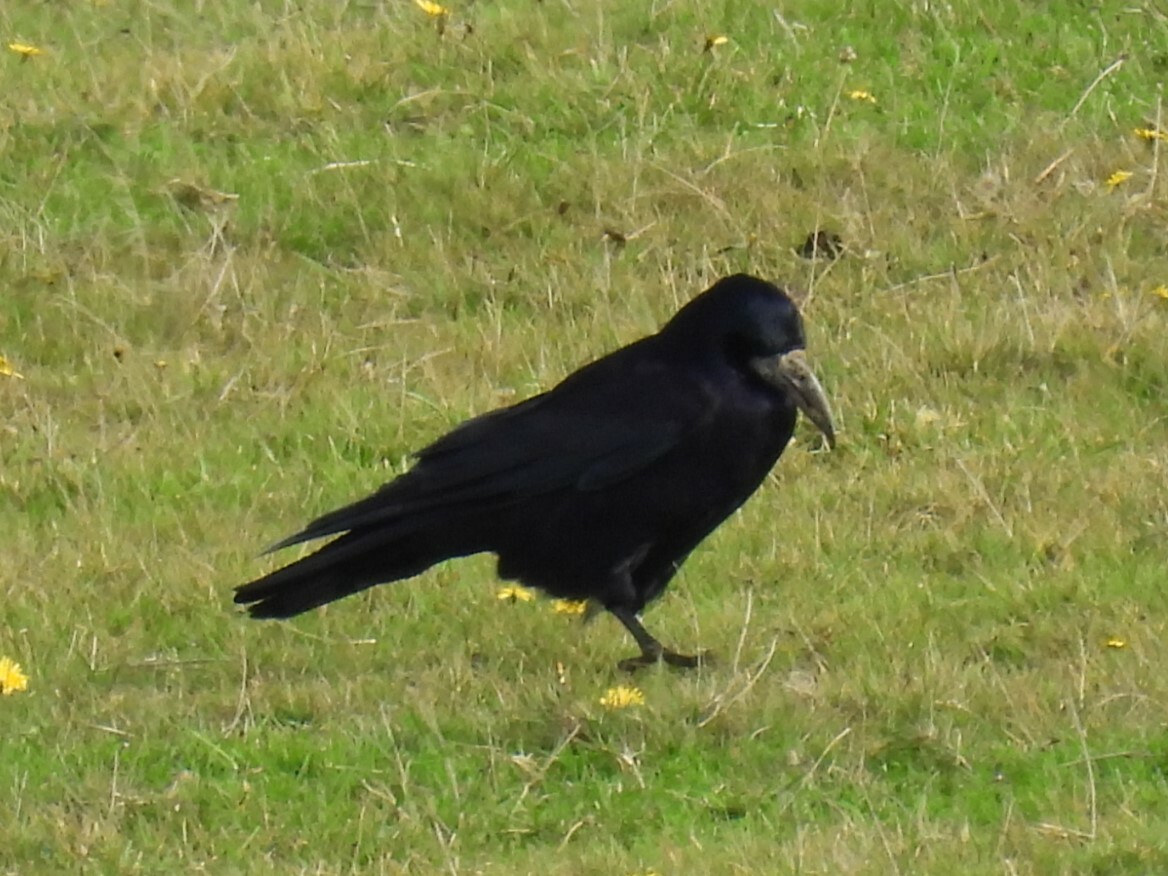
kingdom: Animalia
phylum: Chordata
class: Aves
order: Passeriformes
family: Corvidae
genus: Corvus
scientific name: Corvus frugilegus
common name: Rook
